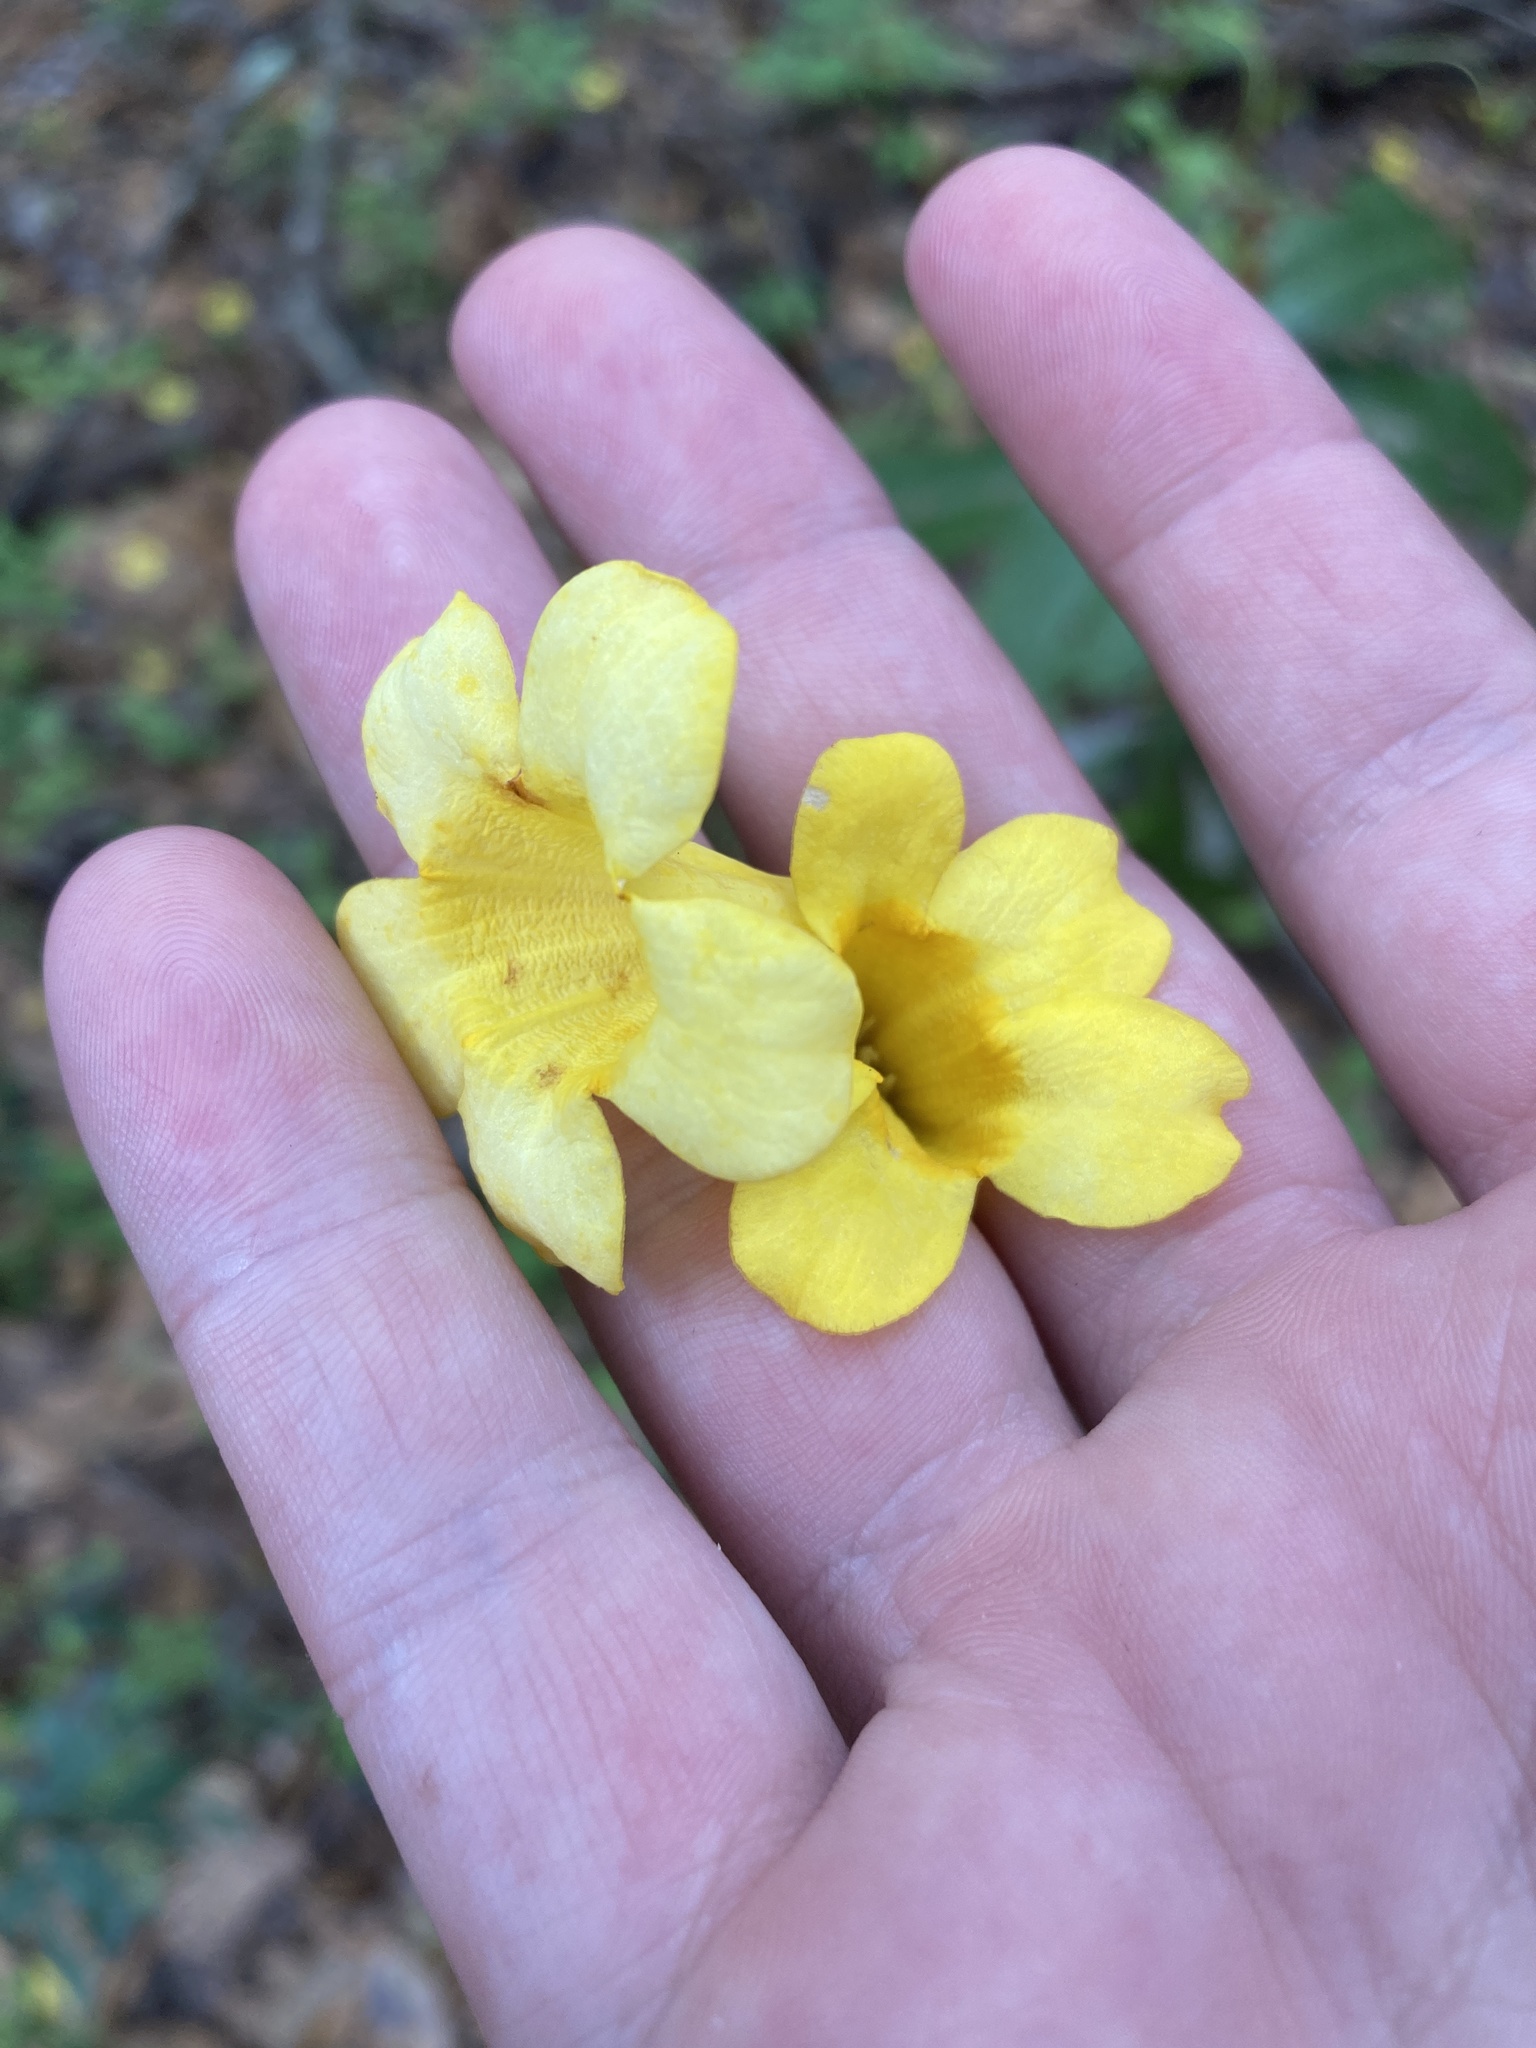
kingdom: Plantae
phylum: Tracheophyta
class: Magnoliopsida
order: Gentianales
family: Gelsemiaceae
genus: Gelsemium
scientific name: Gelsemium sempervirens
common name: Carolina-jasmine
